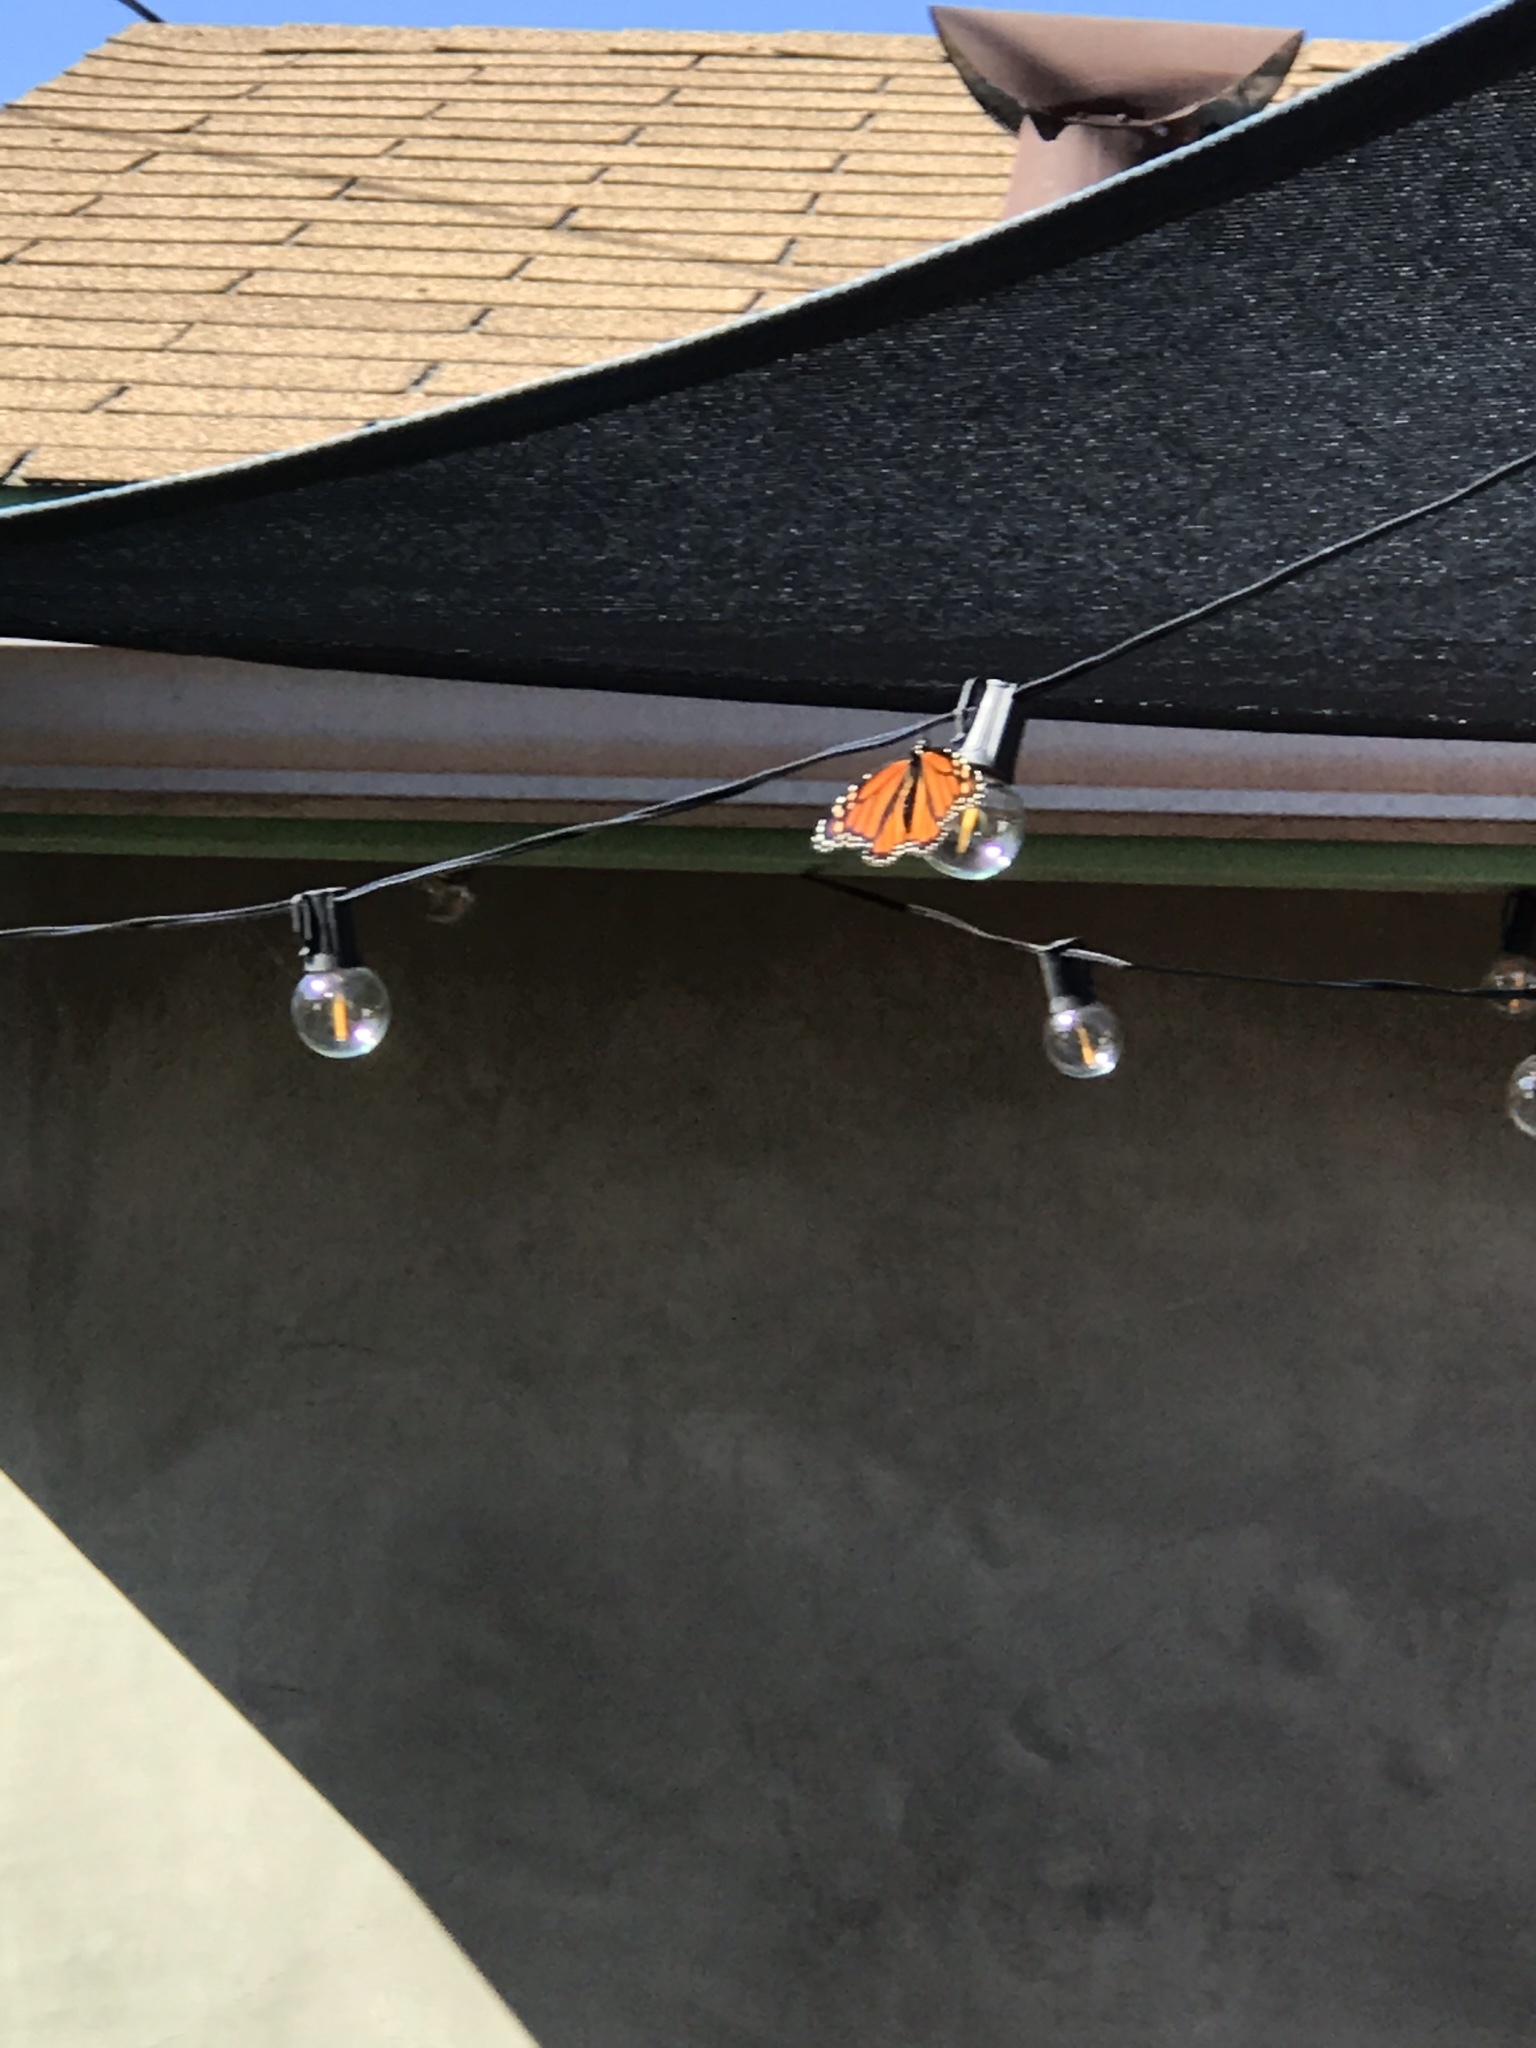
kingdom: Animalia
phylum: Arthropoda
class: Insecta
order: Lepidoptera
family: Nymphalidae
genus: Danaus
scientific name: Danaus plexippus
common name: Monarch
